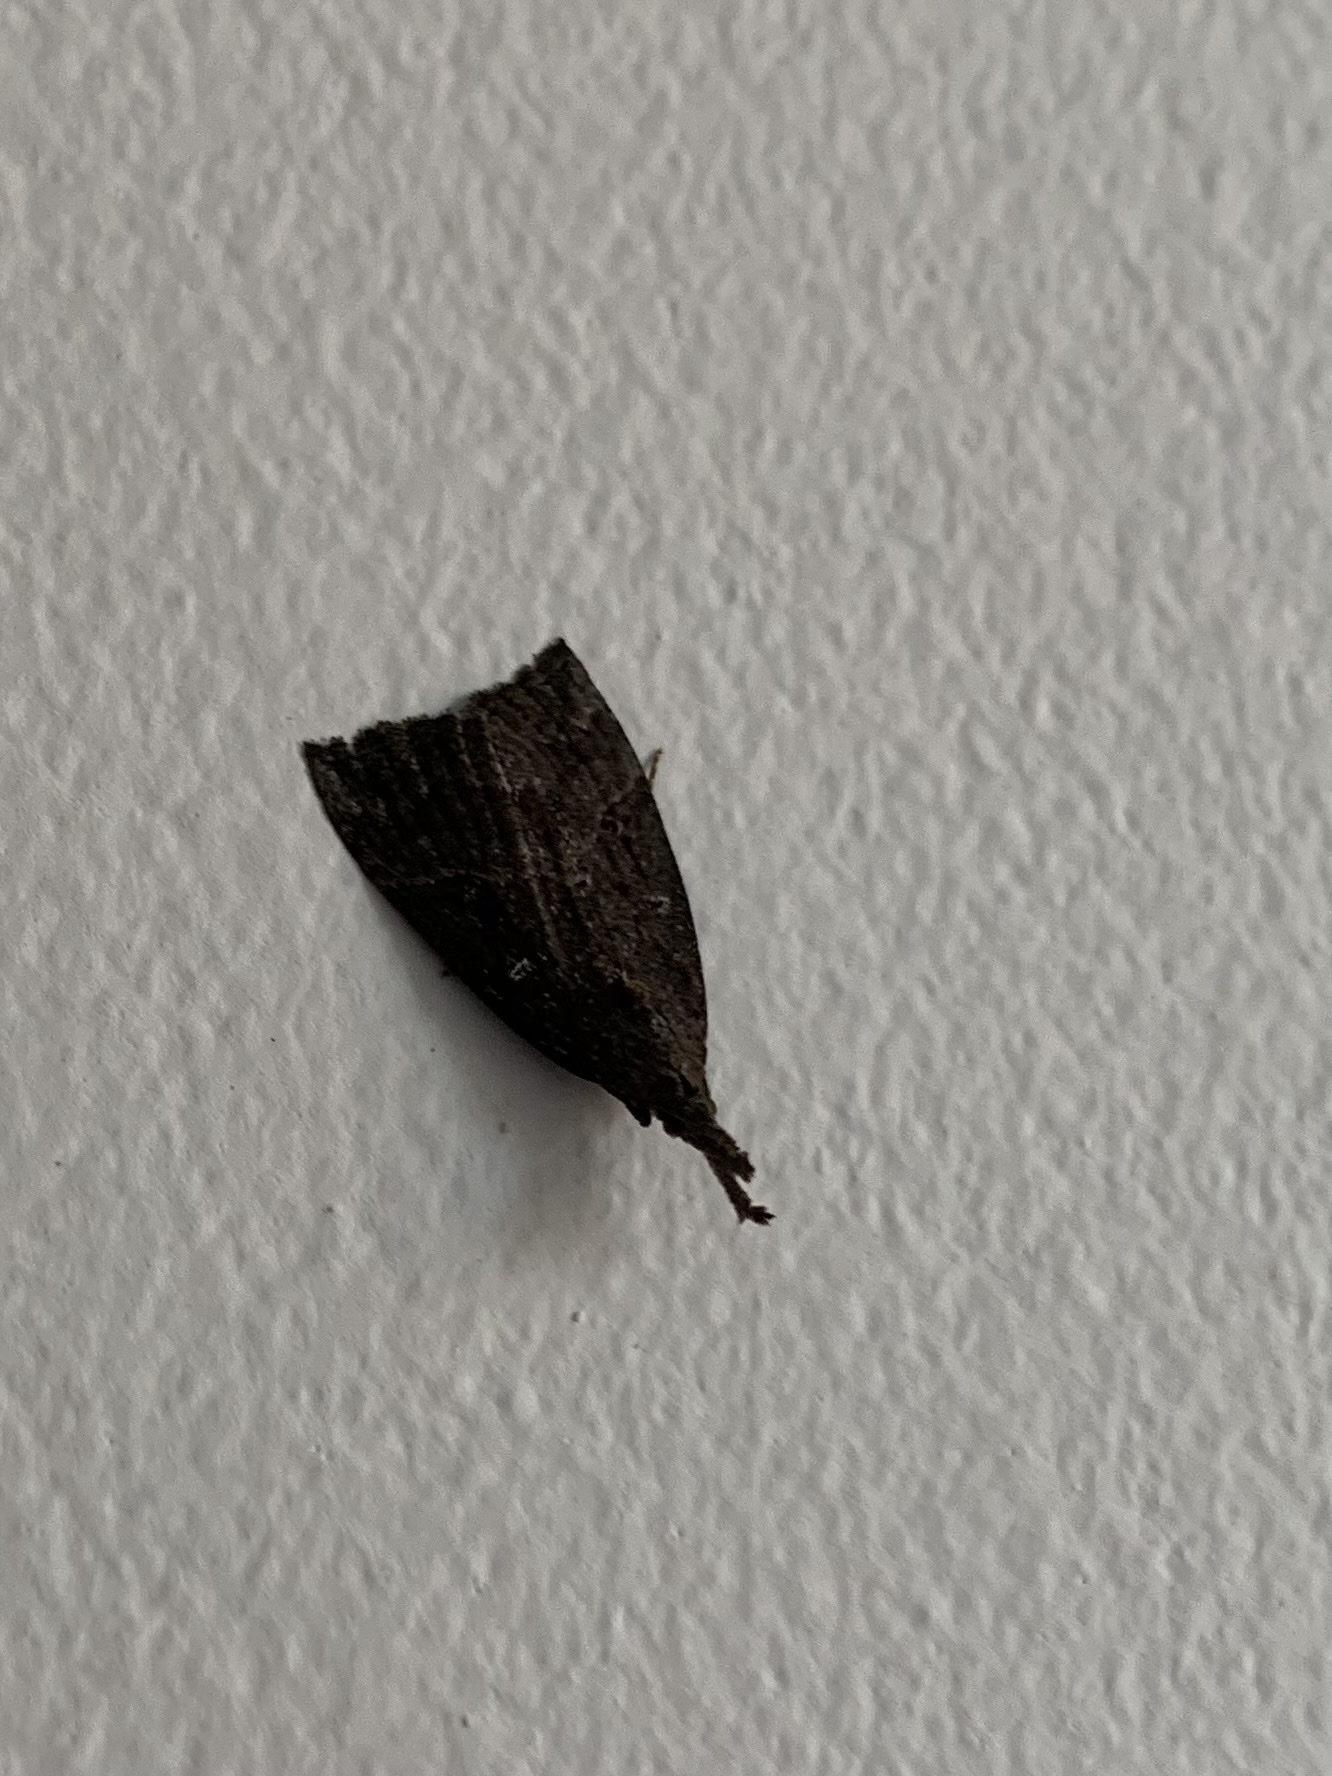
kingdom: Animalia
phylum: Arthropoda
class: Insecta
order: Lepidoptera
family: Erebidae
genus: Hypena
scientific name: Hypena rostralis
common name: Buttoned snout
